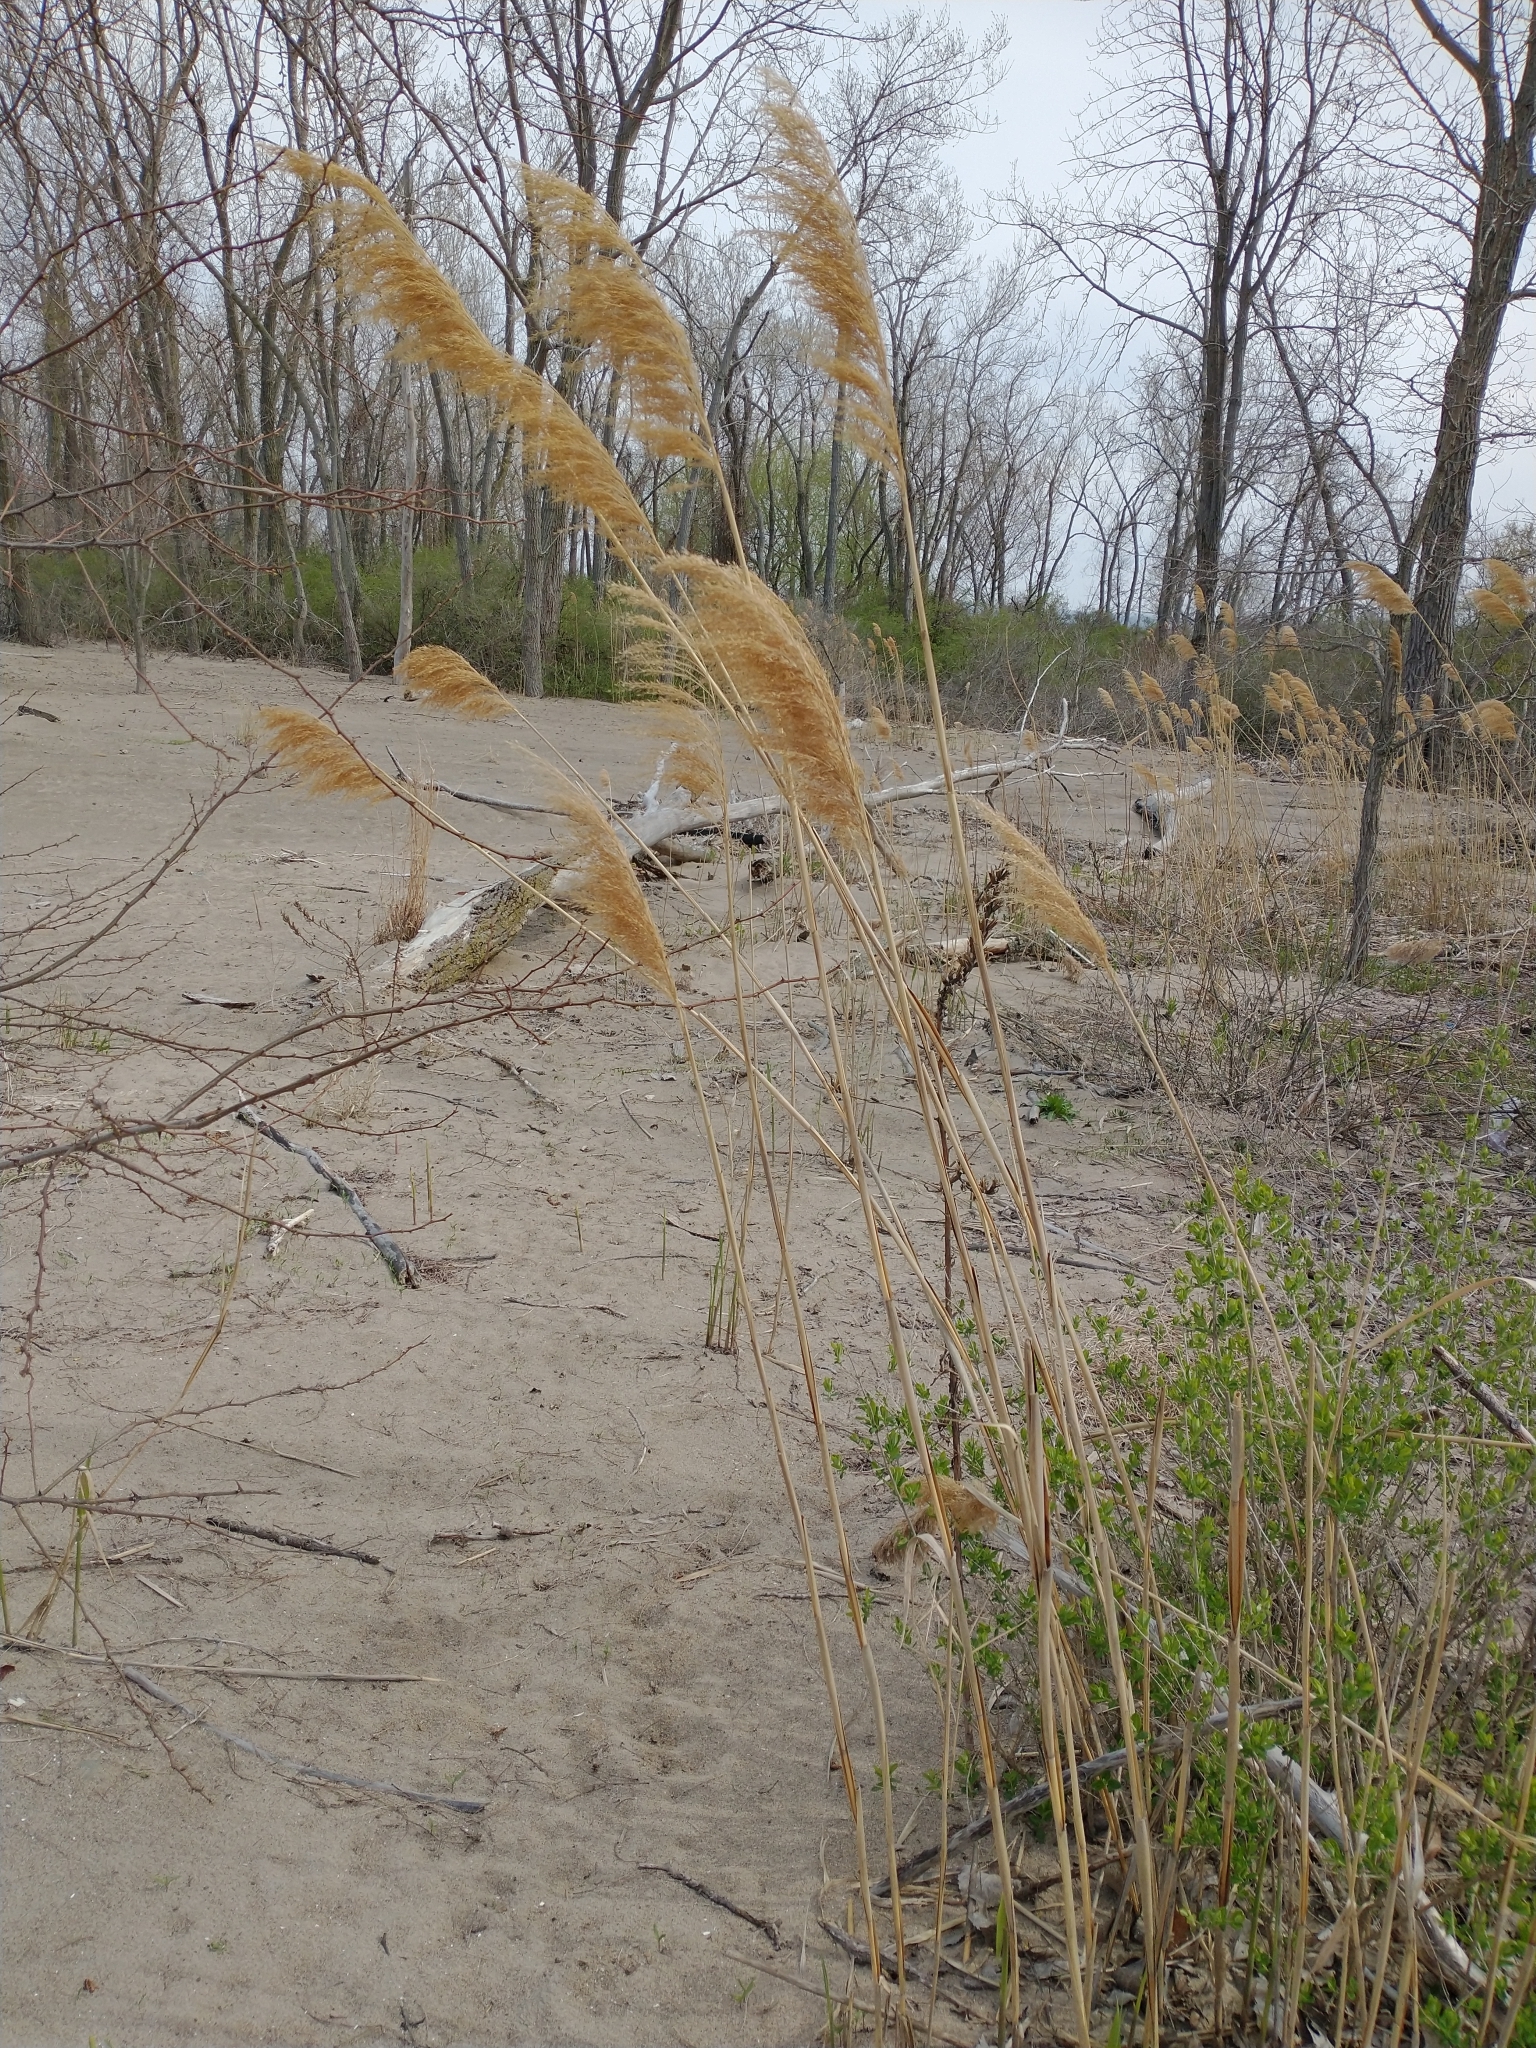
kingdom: Plantae
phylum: Tracheophyta
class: Liliopsida
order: Poales
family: Poaceae
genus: Phragmites
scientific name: Phragmites australis
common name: Common reed
